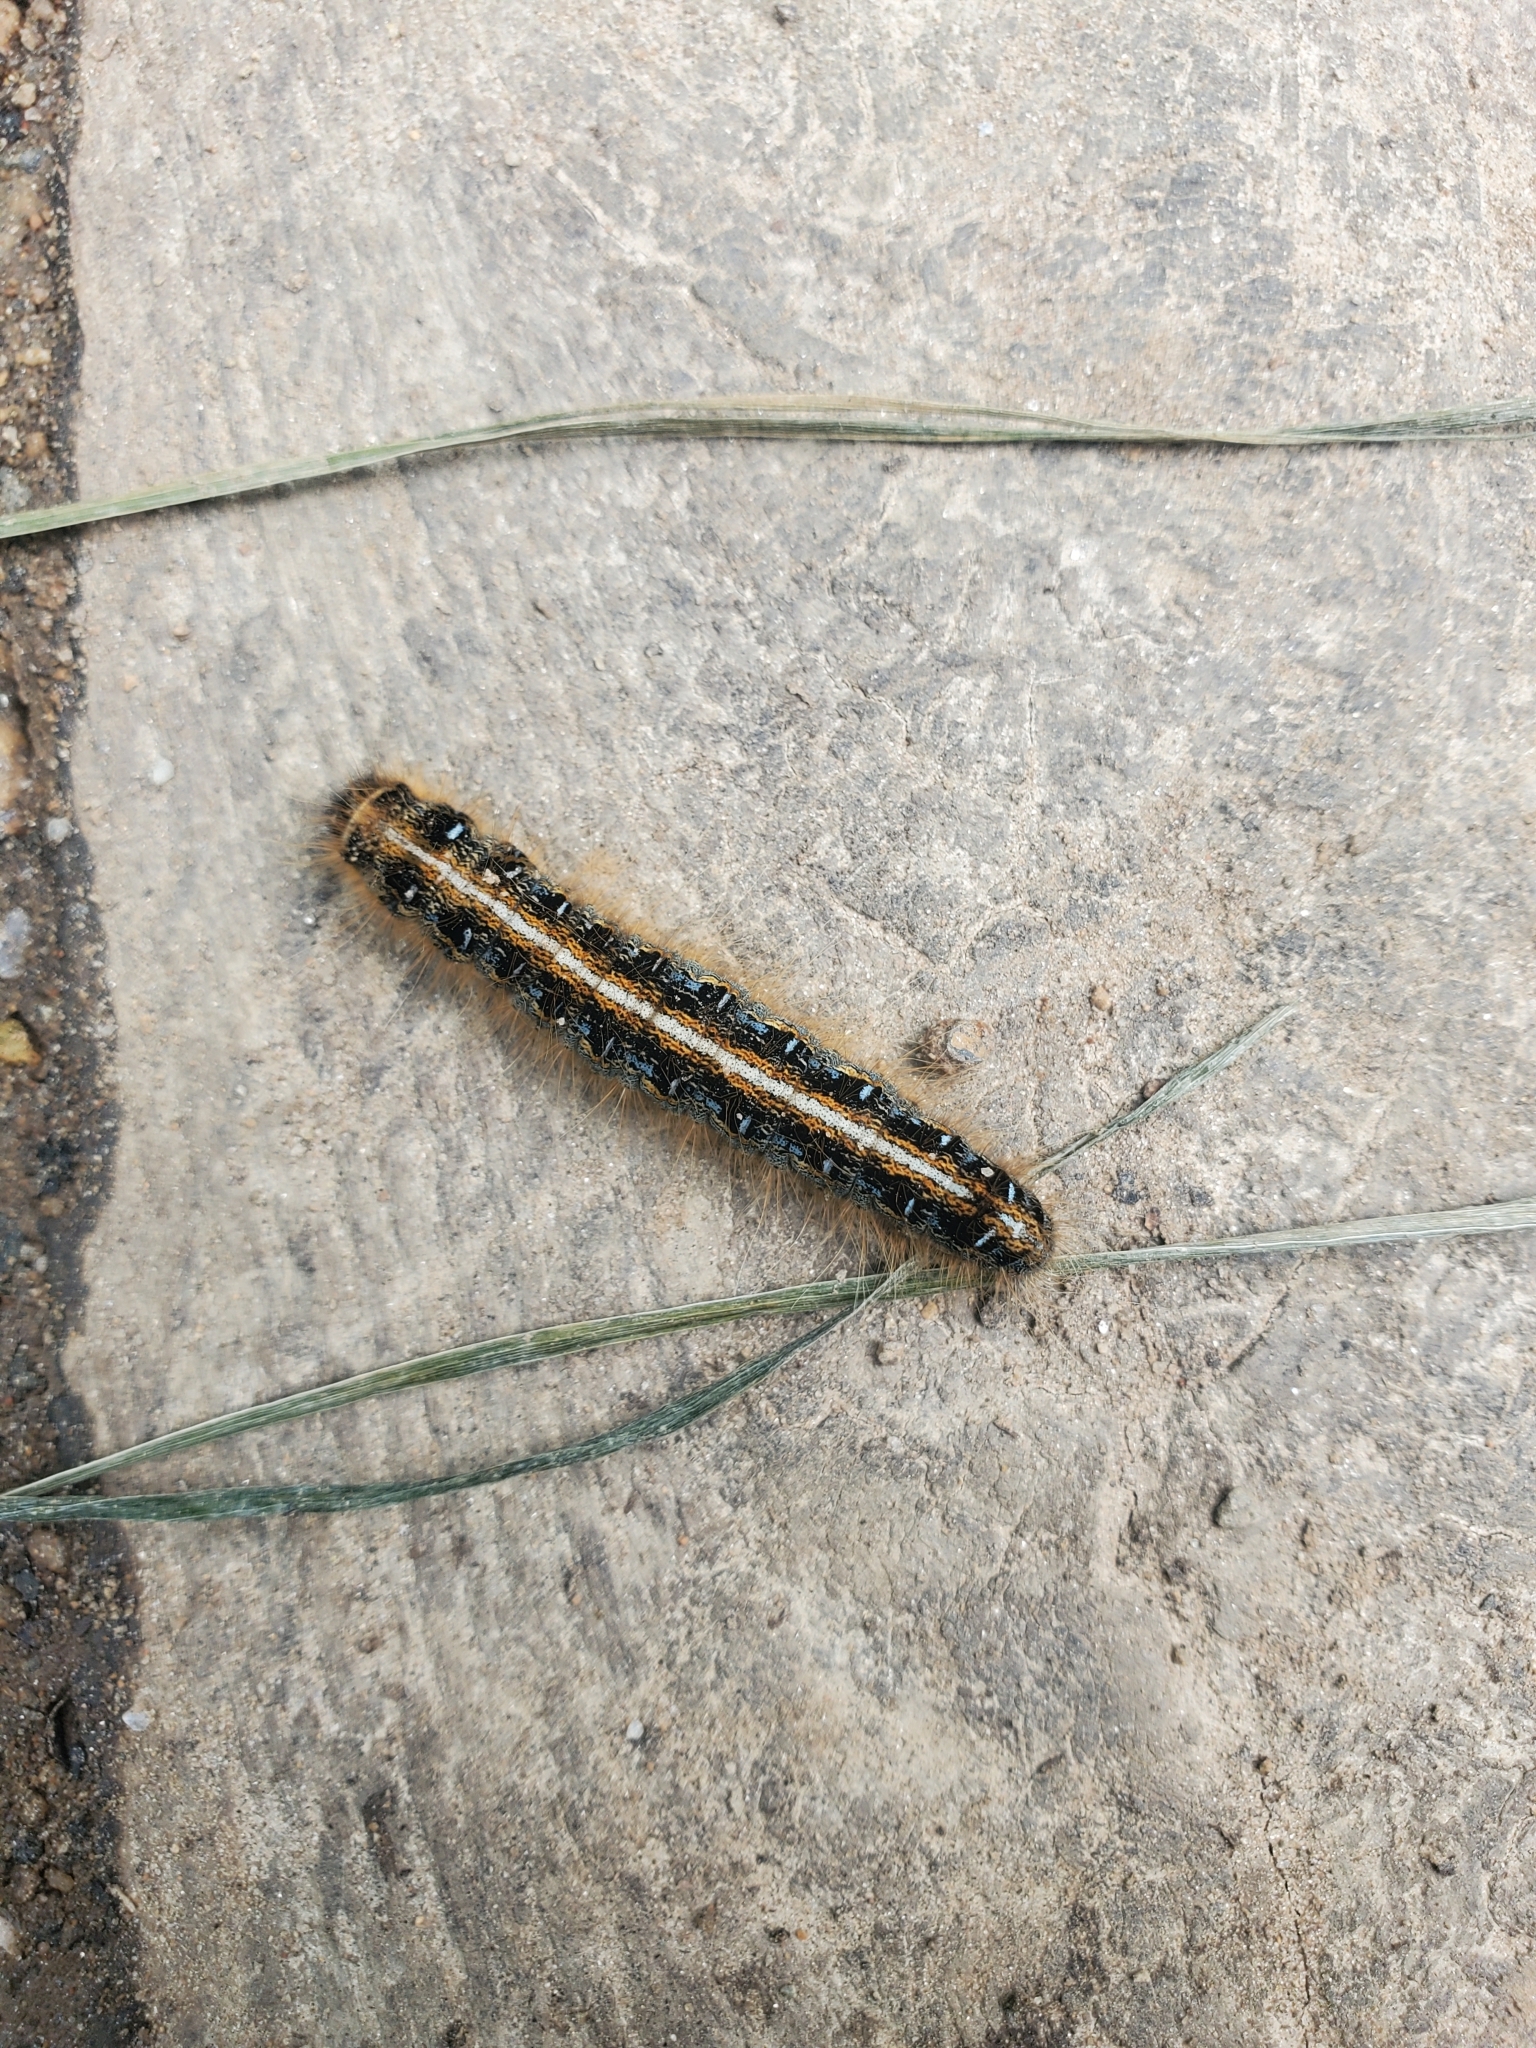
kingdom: Animalia
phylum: Arthropoda
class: Insecta
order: Lepidoptera
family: Lasiocampidae
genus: Malacosoma
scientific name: Malacosoma americana
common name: Eastern tent caterpillar moth
